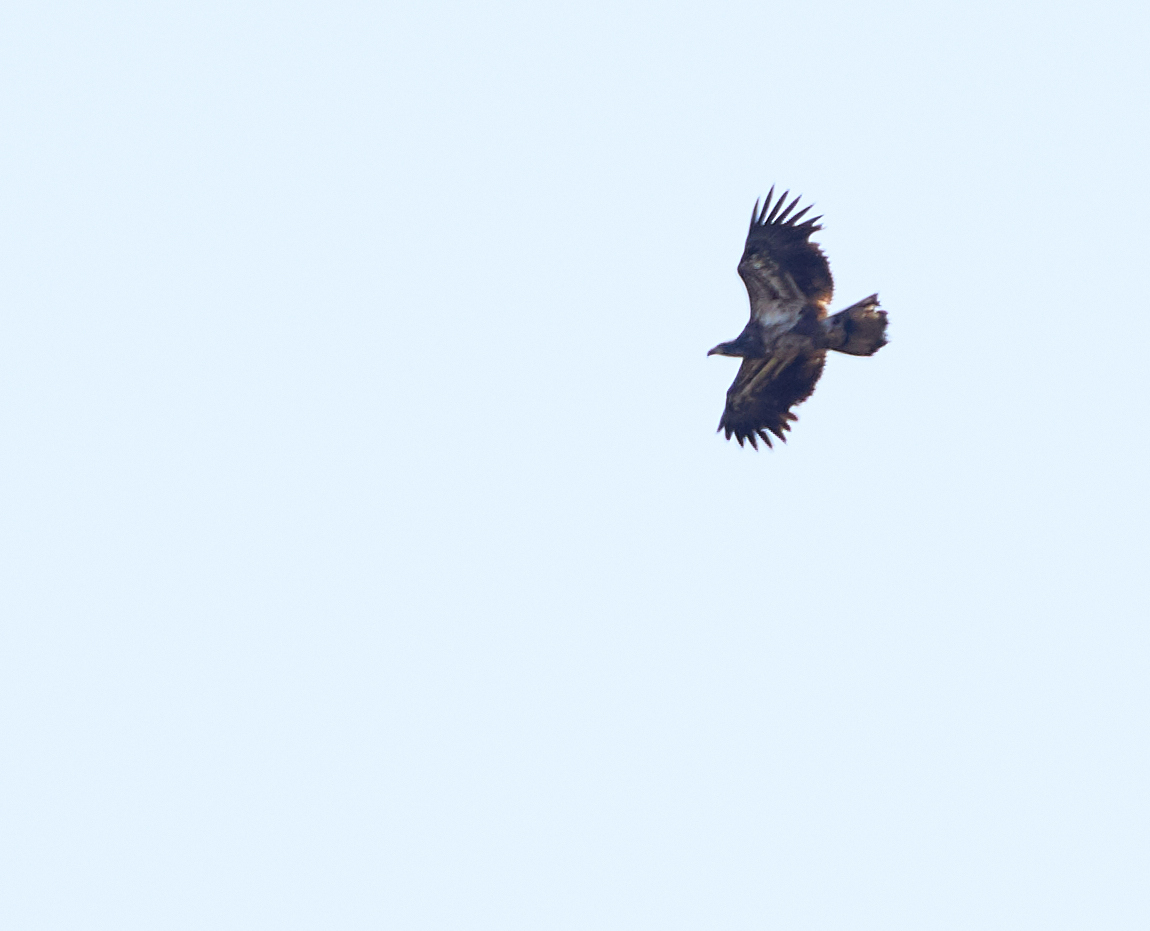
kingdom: Animalia
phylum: Chordata
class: Aves
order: Accipitriformes
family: Accipitridae
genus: Haliaeetus
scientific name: Haliaeetus leucocephalus
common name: Bald eagle
